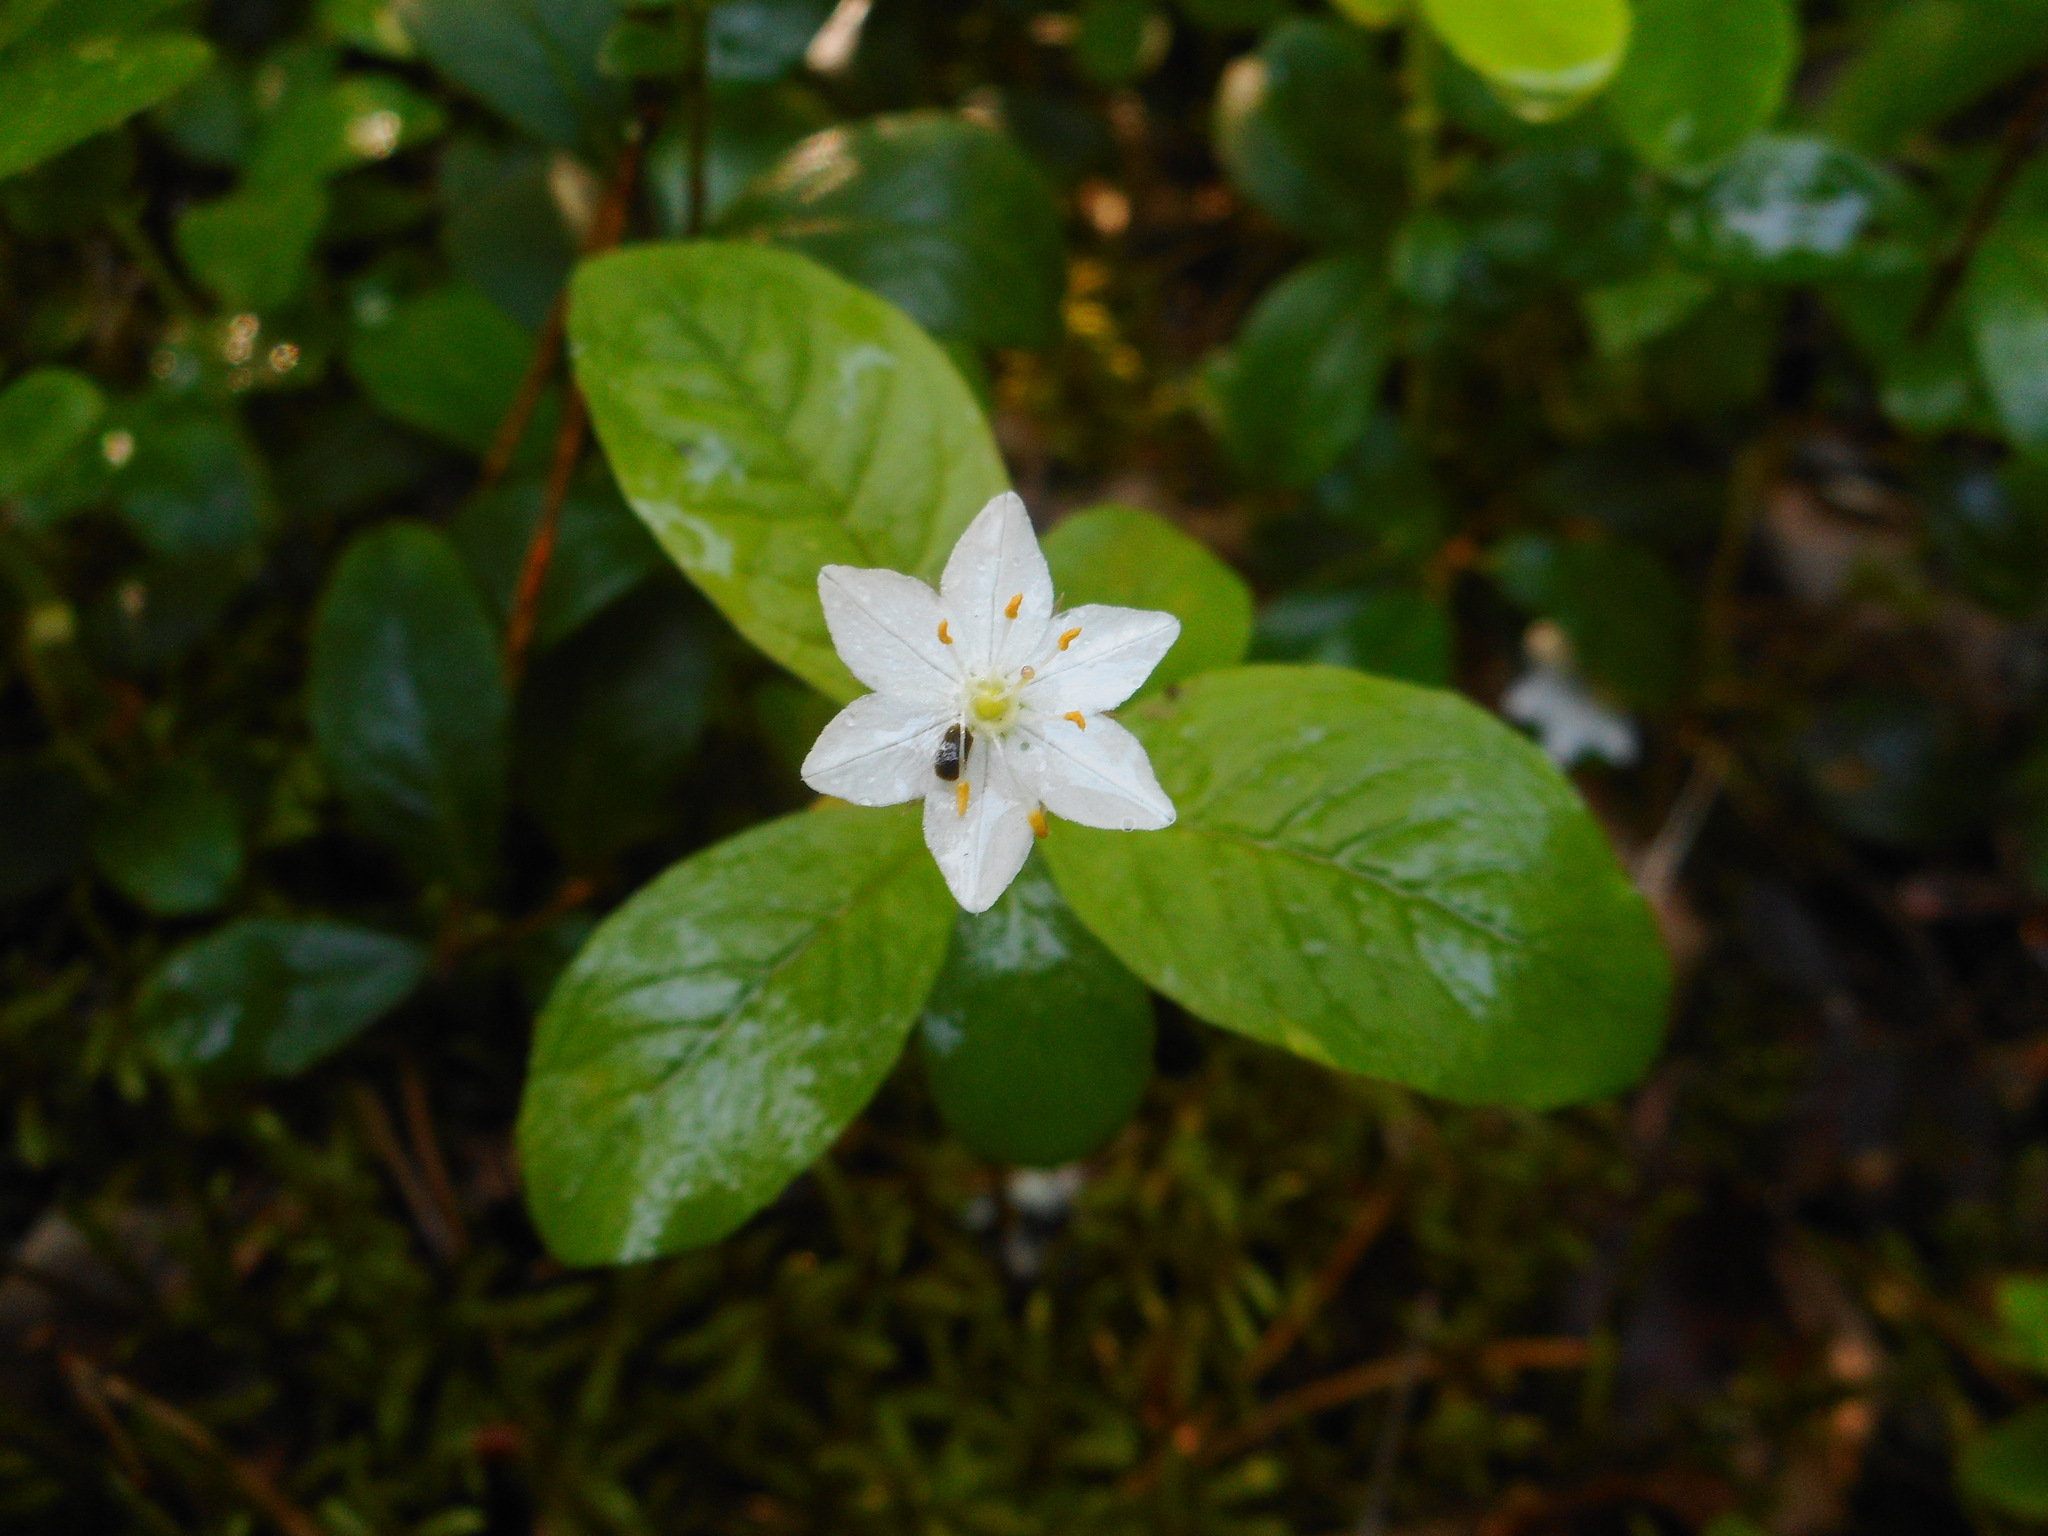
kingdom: Plantae
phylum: Tracheophyta
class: Magnoliopsida
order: Ericales
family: Primulaceae
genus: Lysimachia
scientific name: Lysimachia europaea
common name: Arctic starflower
